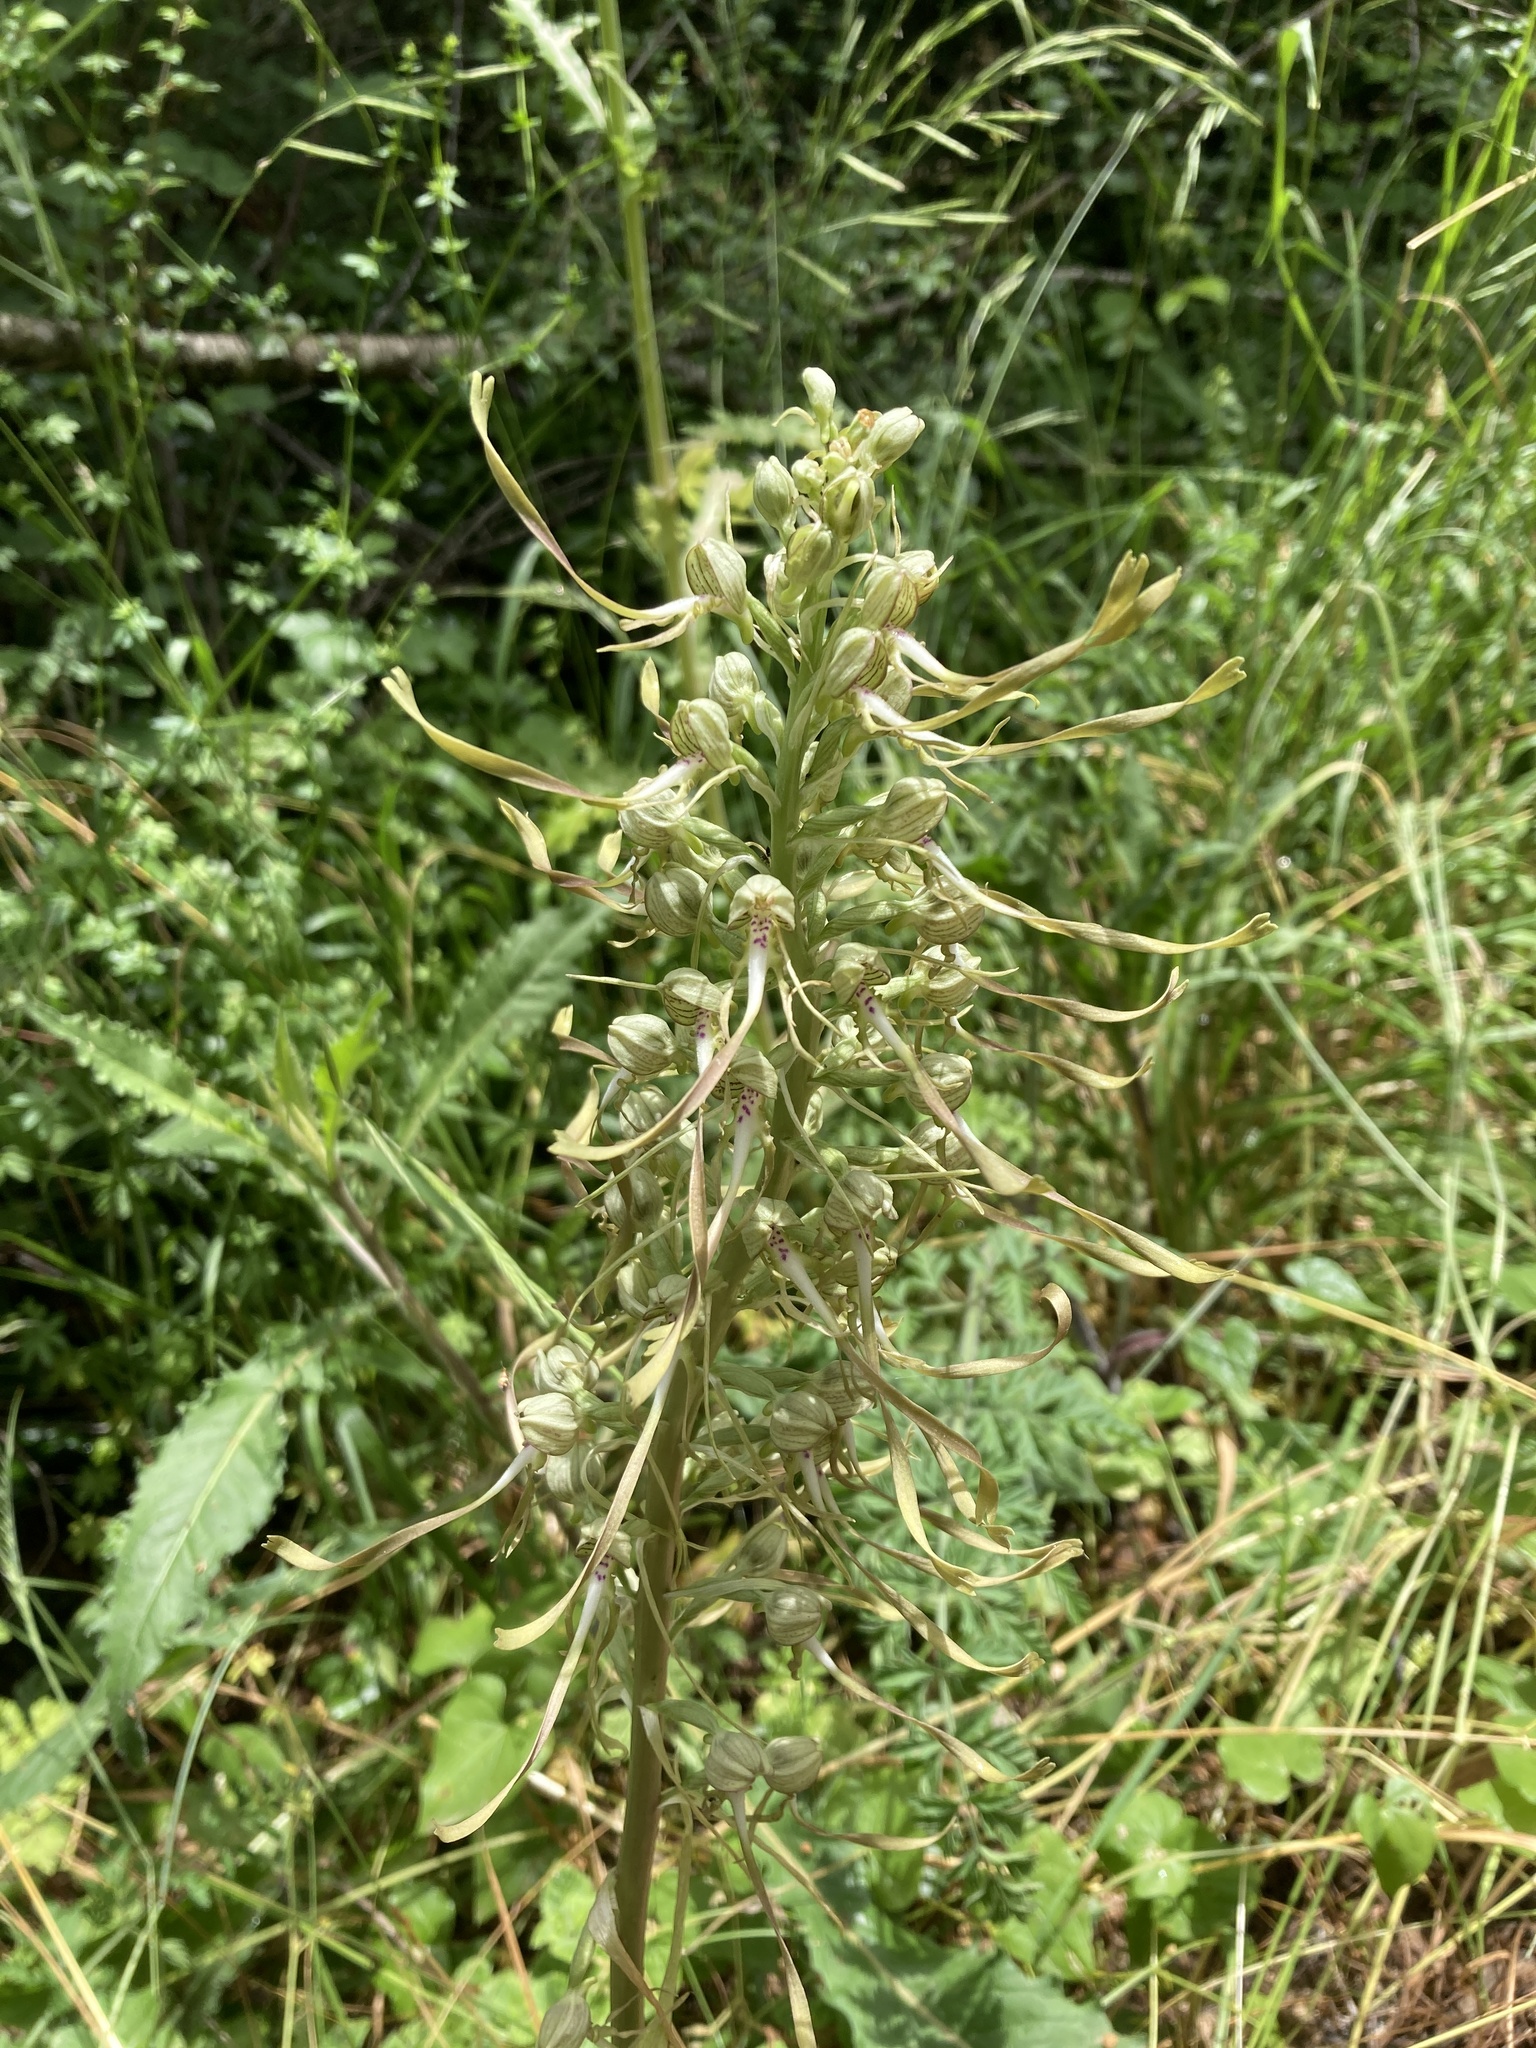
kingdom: Plantae
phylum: Tracheophyta
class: Liliopsida
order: Asparagales
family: Orchidaceae
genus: Himantoglossum
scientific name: Himantoglossum hircinum
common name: Lizard orchid
